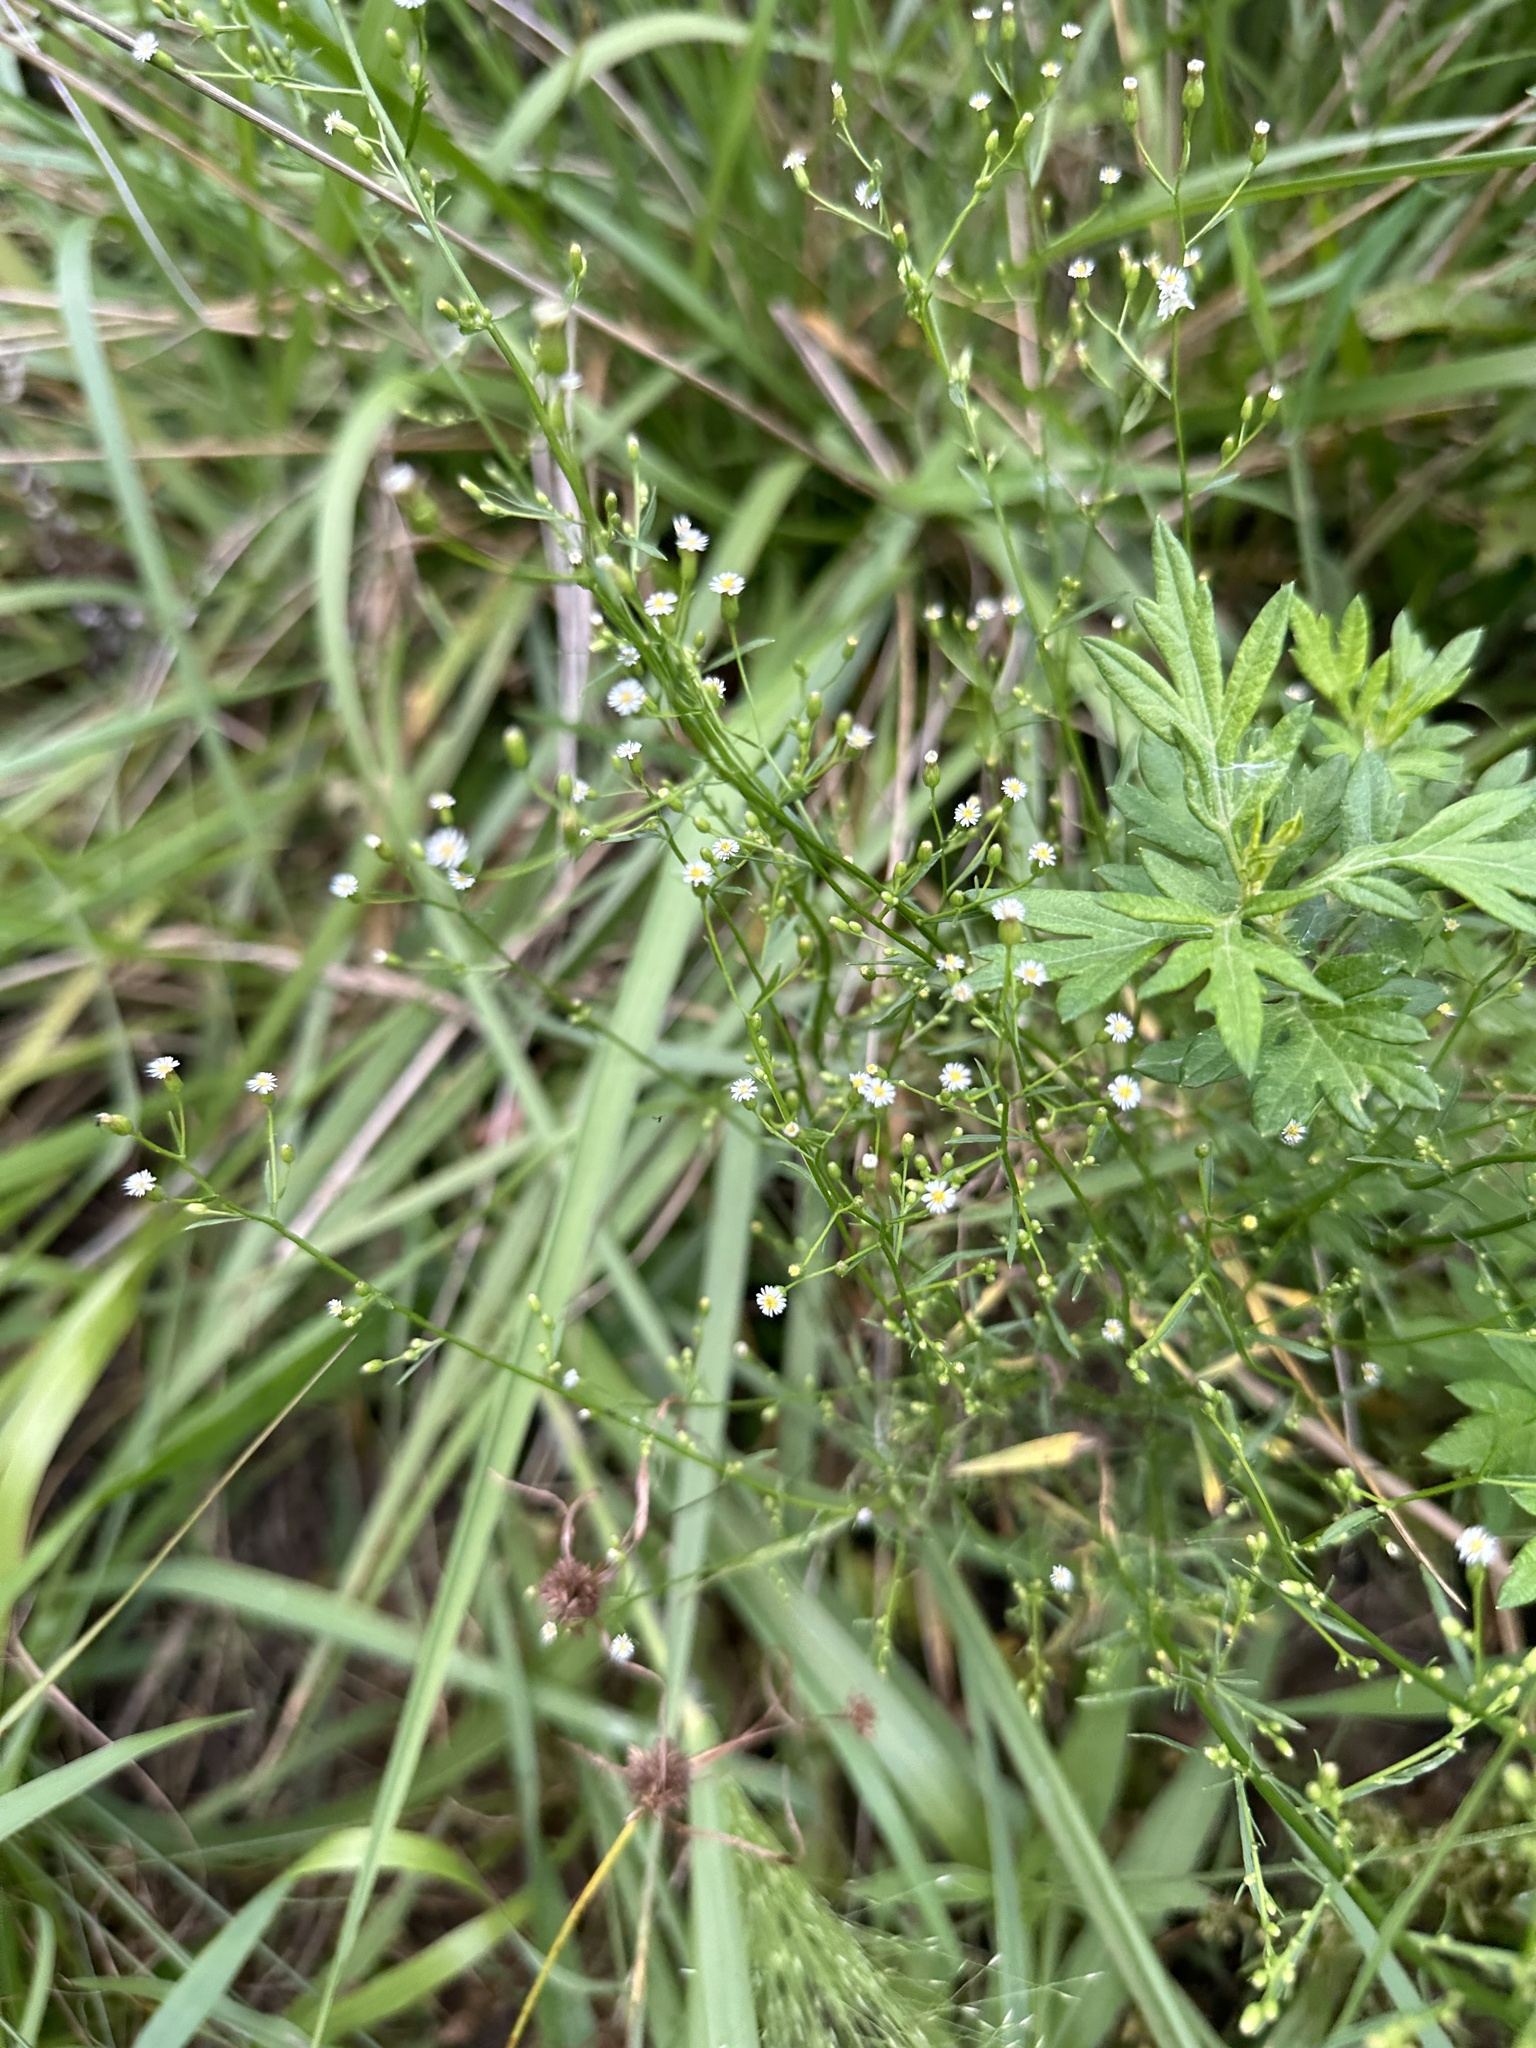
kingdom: Plantae
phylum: Tracheophyta
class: Magnoliopsida
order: Asterales
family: Asteraceae
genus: Erigeron
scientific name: Erigeron canadensis
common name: Canadian fleabane
